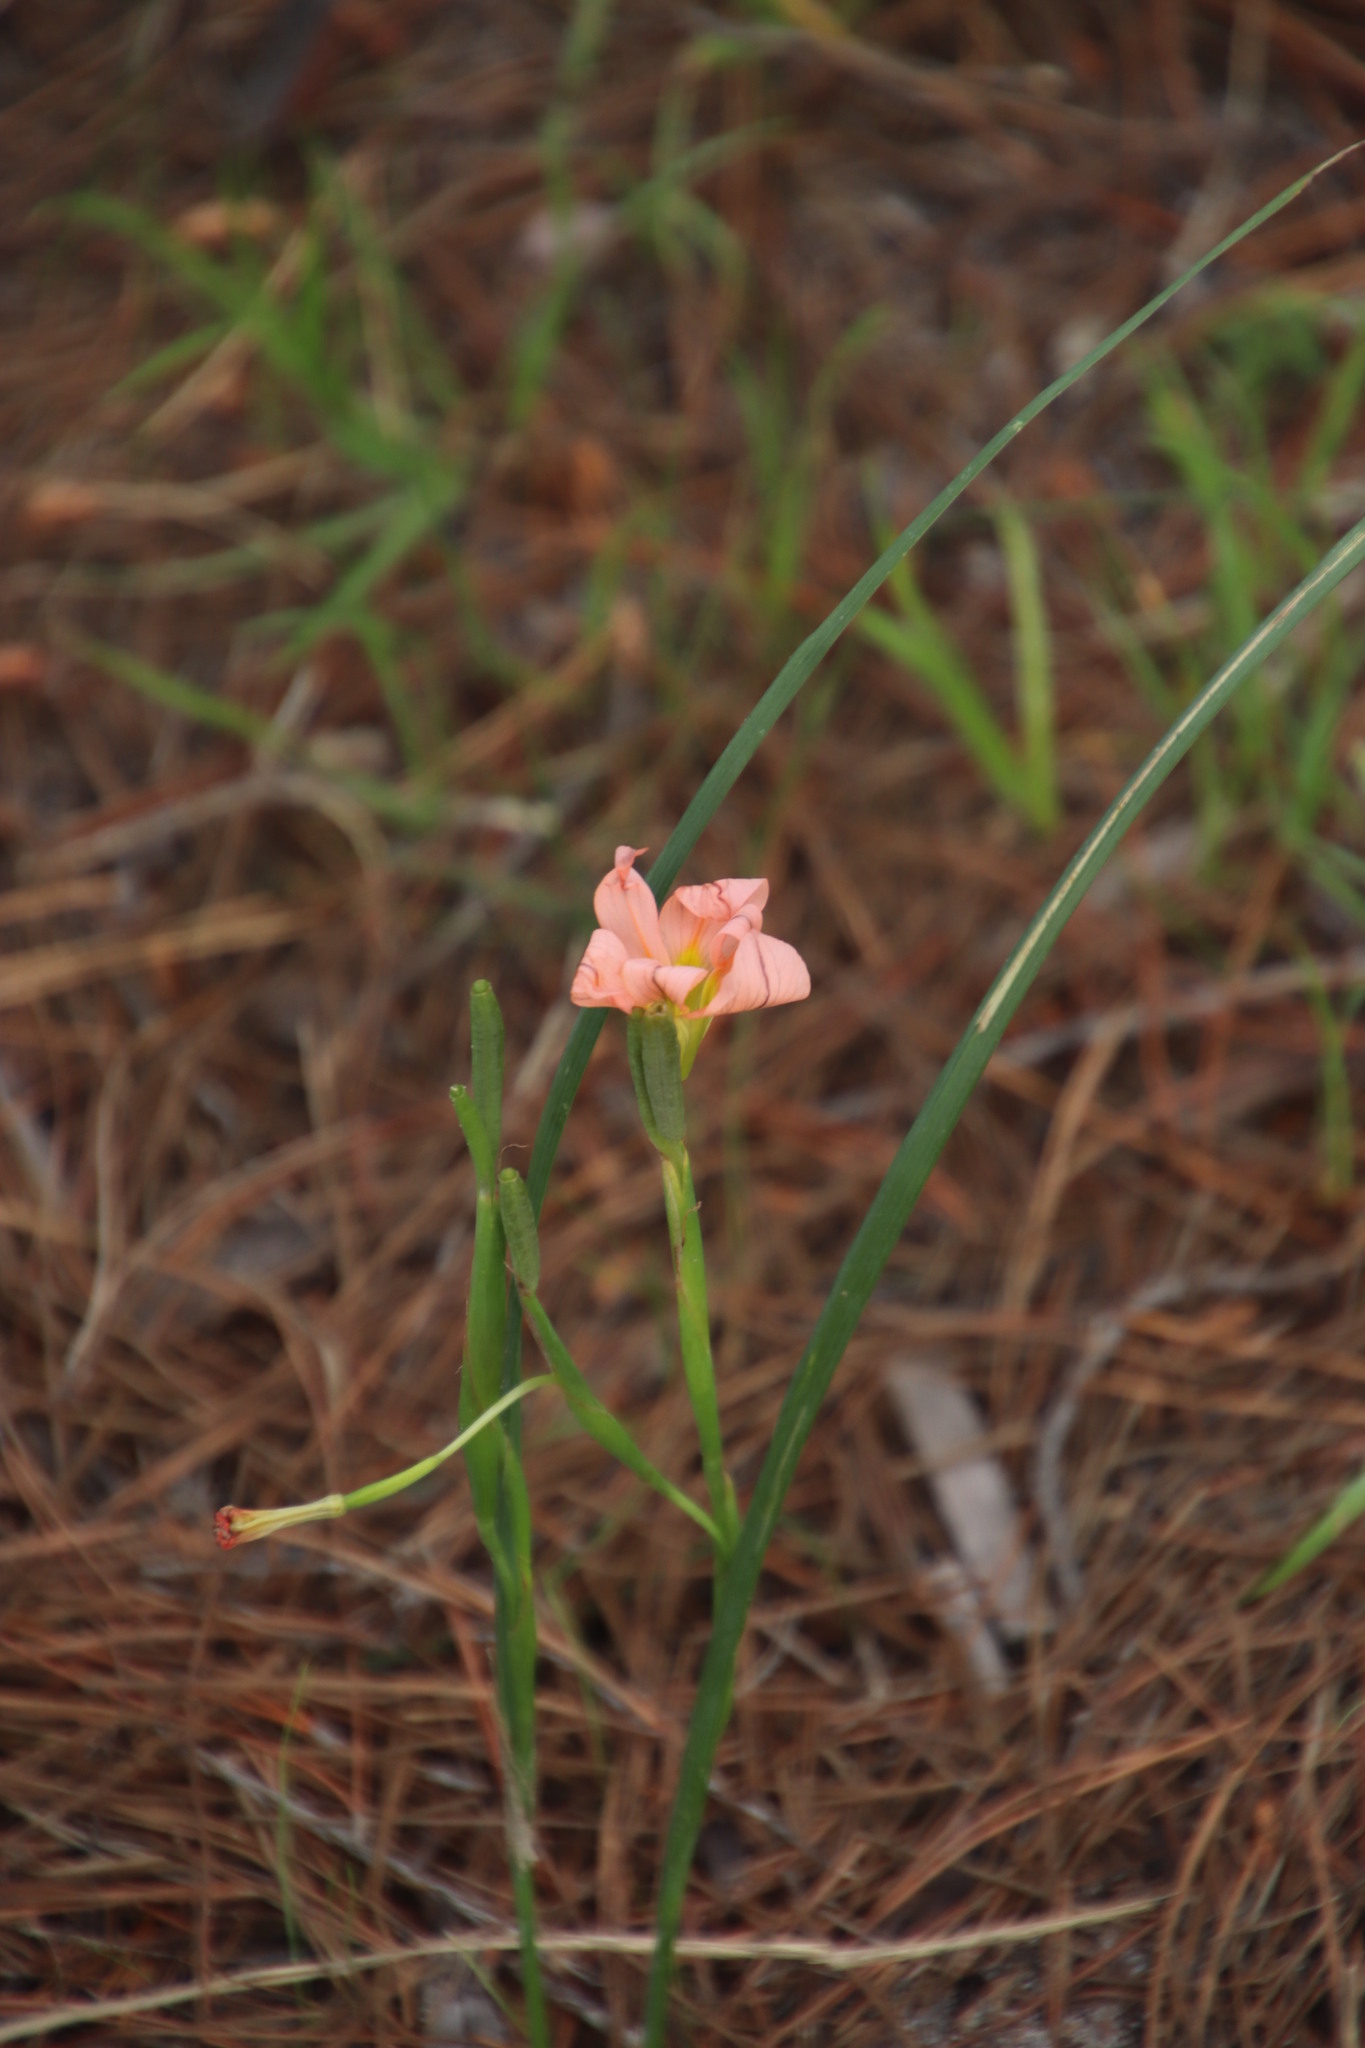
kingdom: Plantae
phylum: Tracheophyta
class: Liliopsida
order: Asparagales
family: Iridaceae
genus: Moraea
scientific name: Moraea flaccida
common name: One-leaf cape-tulip
